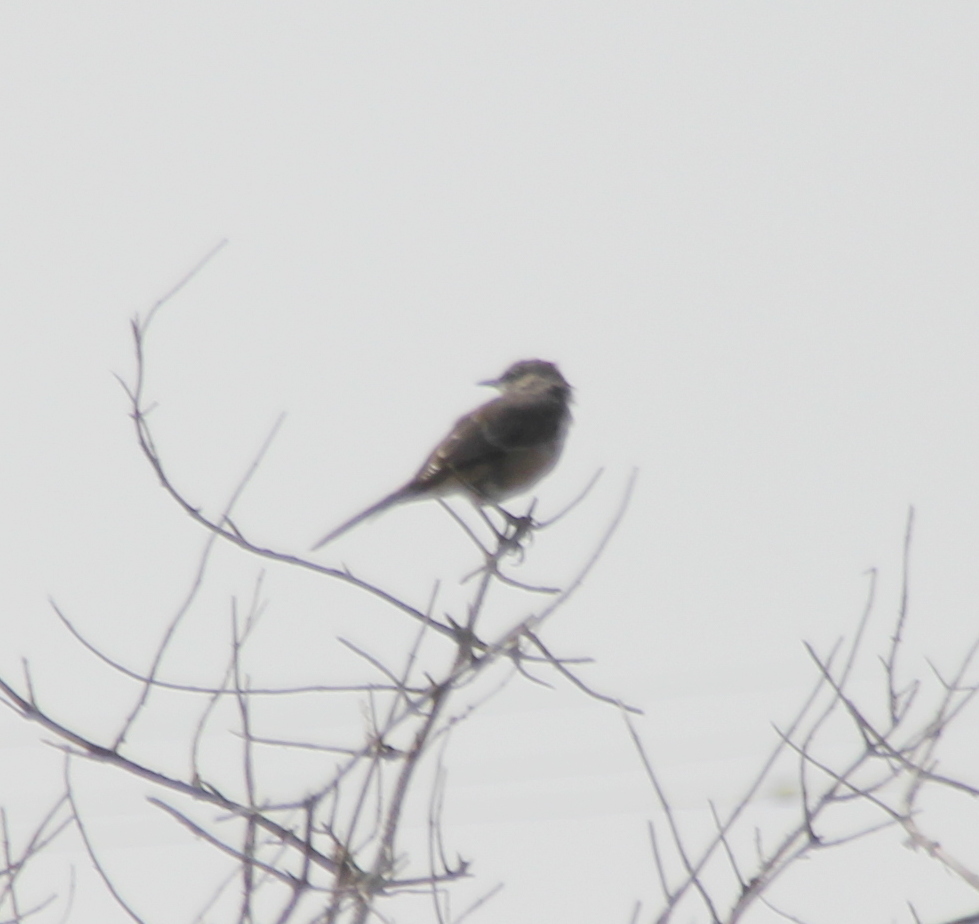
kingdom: Animalia
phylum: Chordata
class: Aves
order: Passeriformes
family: Mimidae
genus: Mimus
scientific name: Mimus polyglottos
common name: Northern mockingbird
